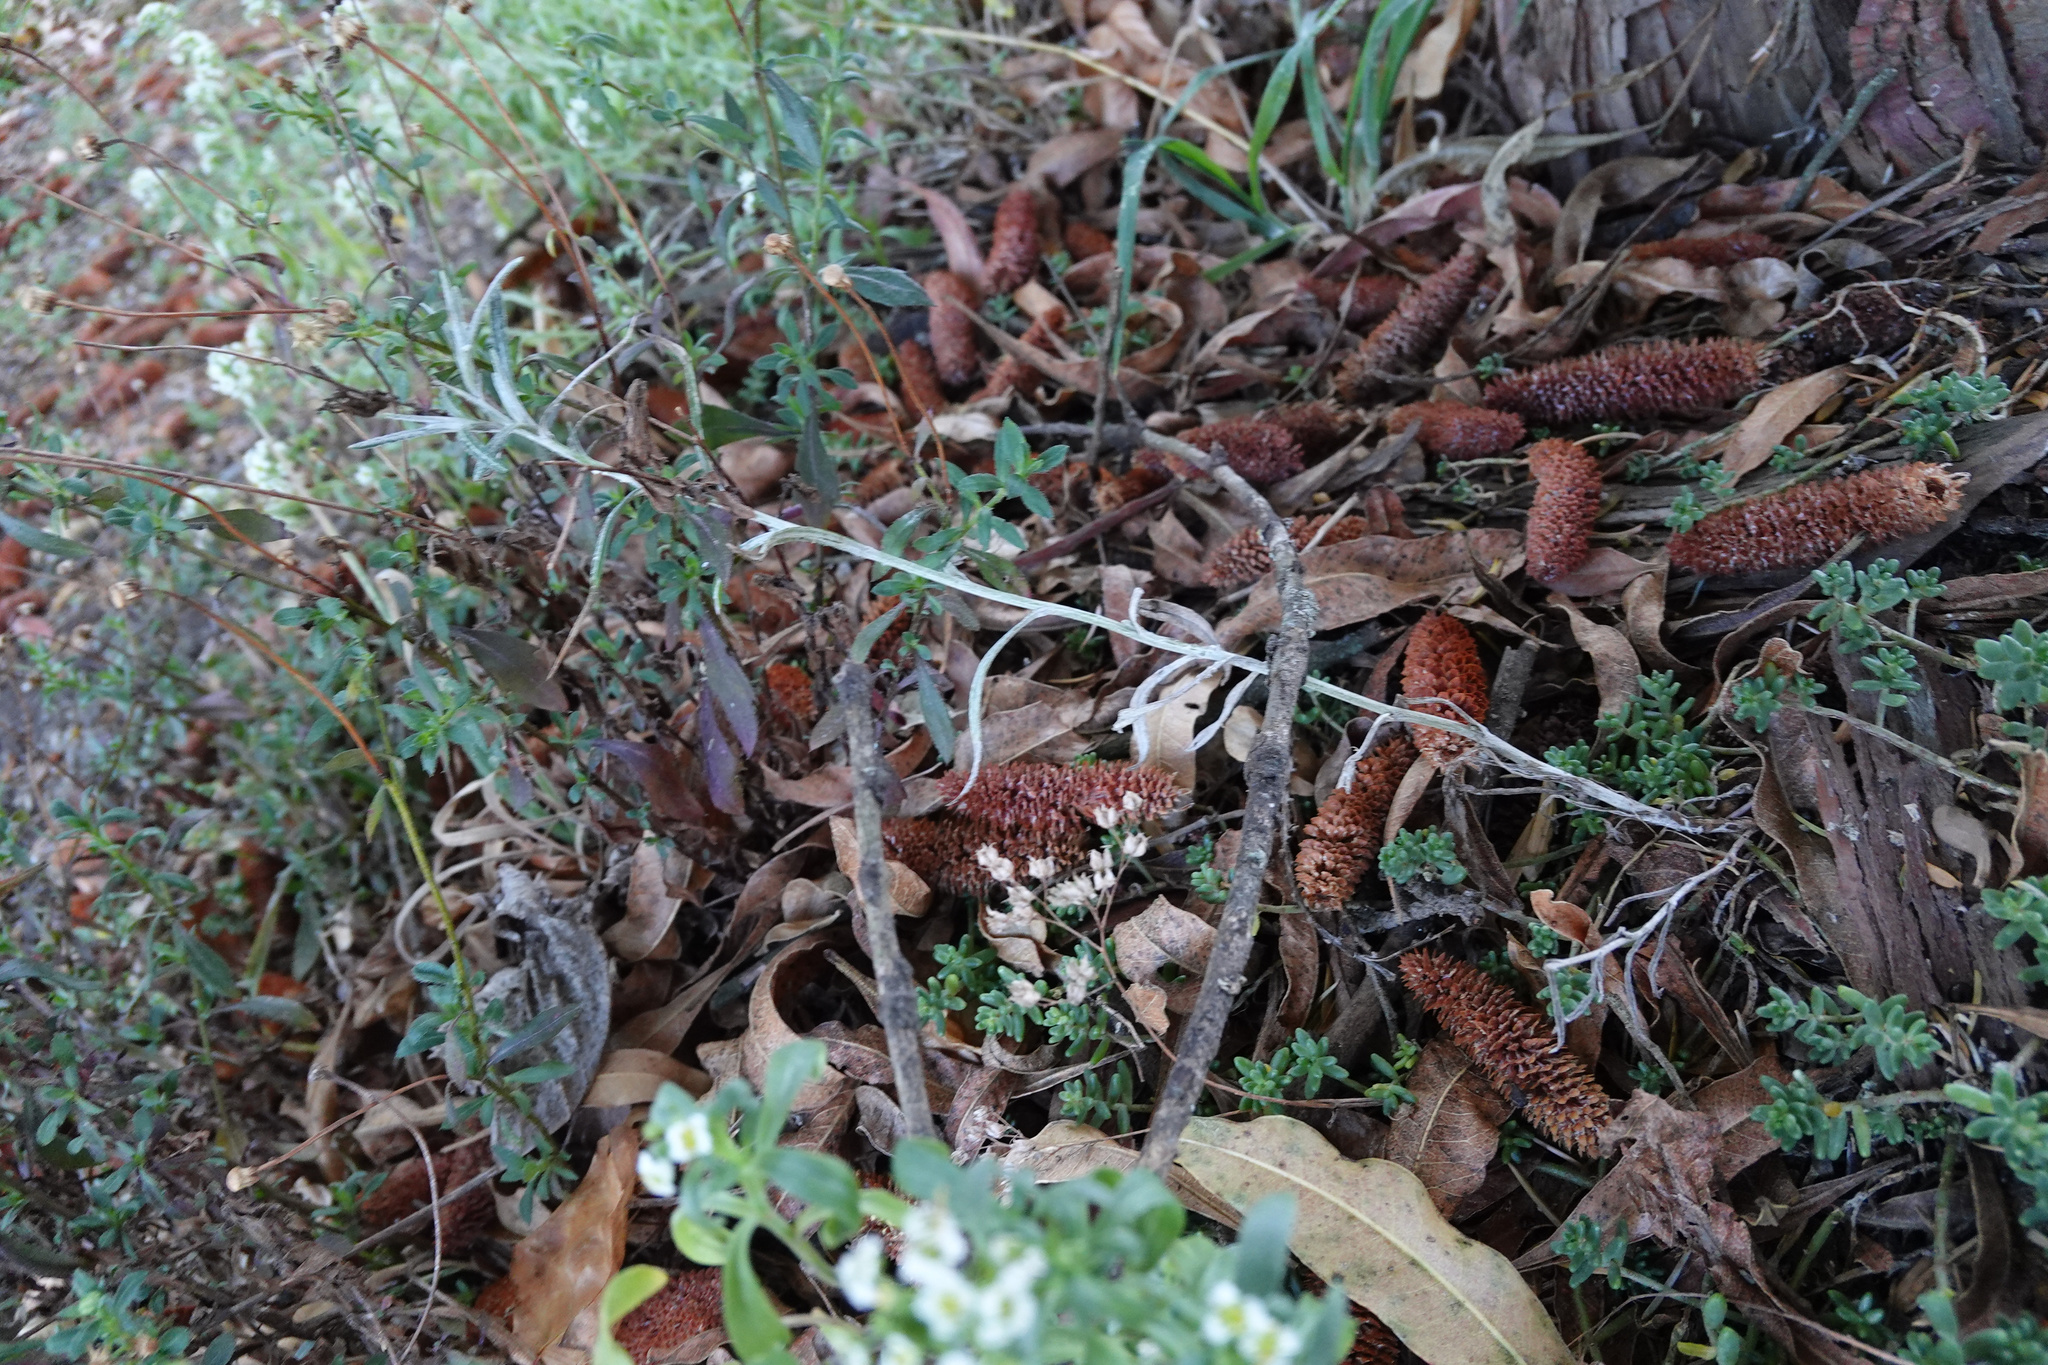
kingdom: Plantae
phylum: Tracheophyta
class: Magnoliopsida
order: Asterales
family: Asteraceae
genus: Senecio
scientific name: Senecio quadridentatus
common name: Cotton fireweed
